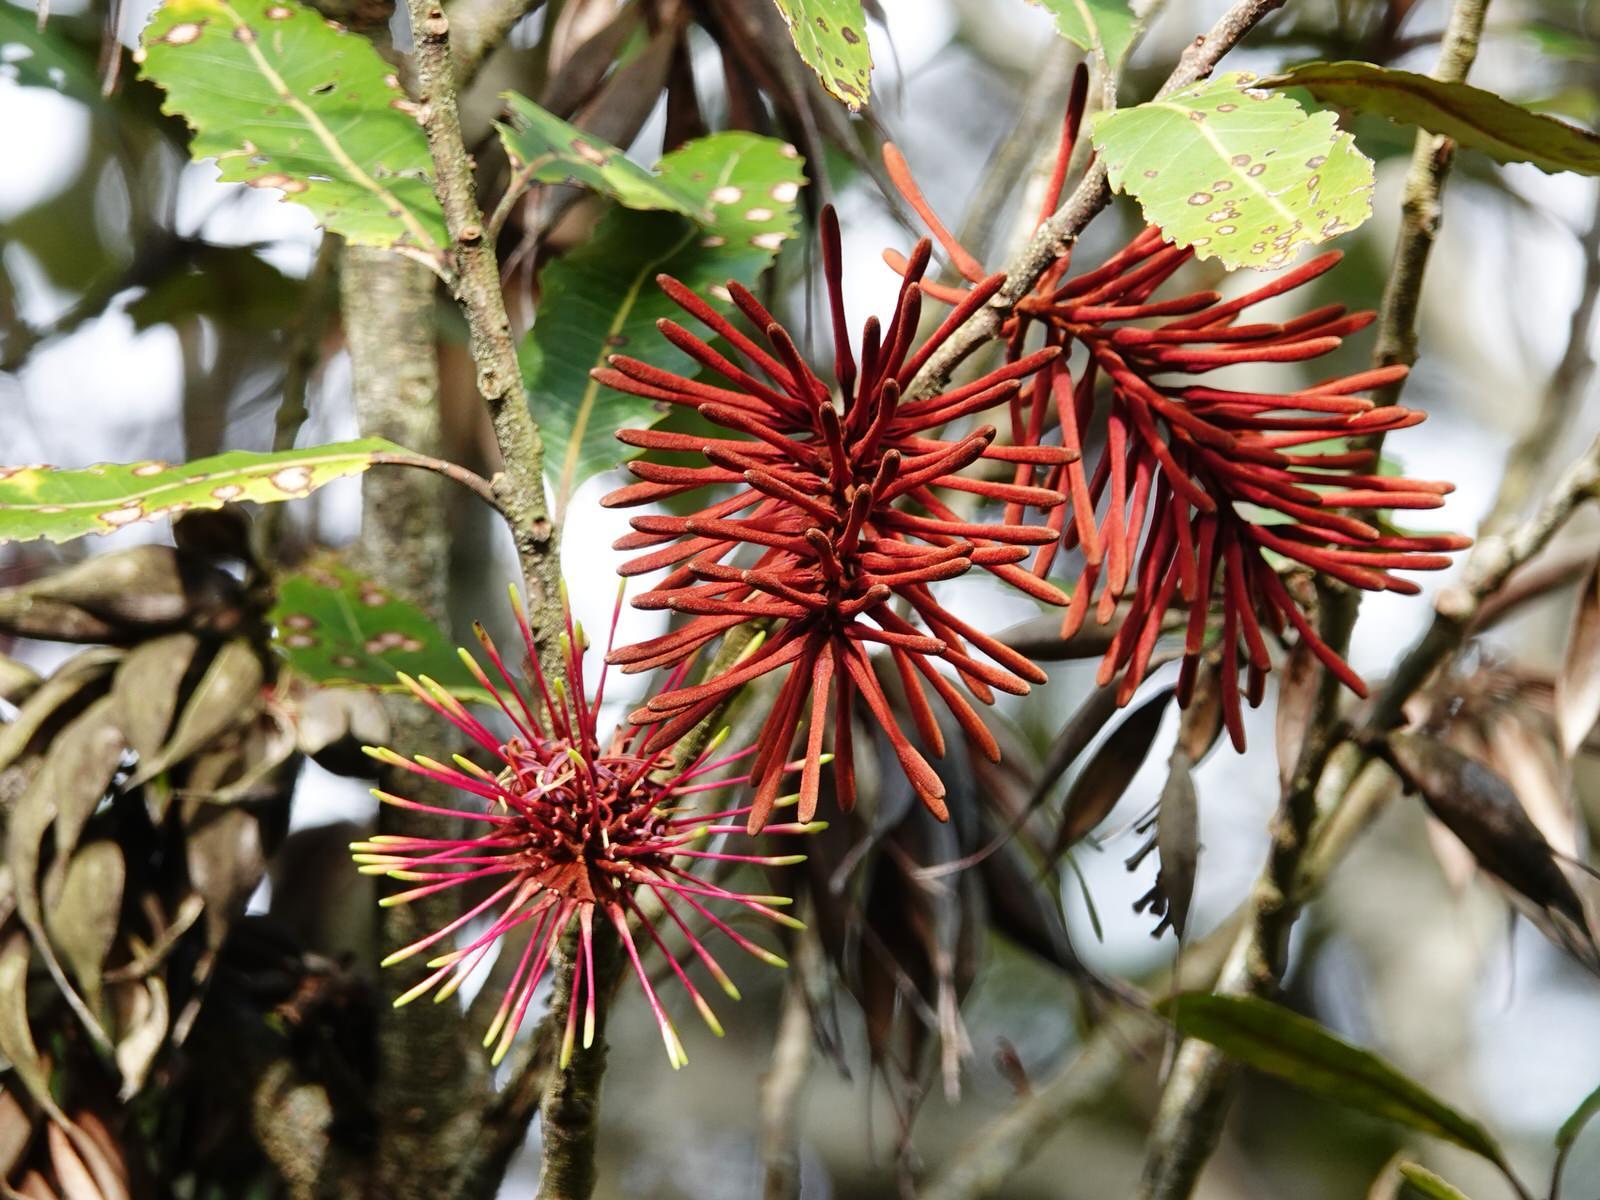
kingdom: Plantae
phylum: Tracheophyta
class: Magnoliopsida
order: Proteales
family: Proteaceae
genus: Knightia
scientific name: Knightia excelsa
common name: New zealand-honeysuckle
